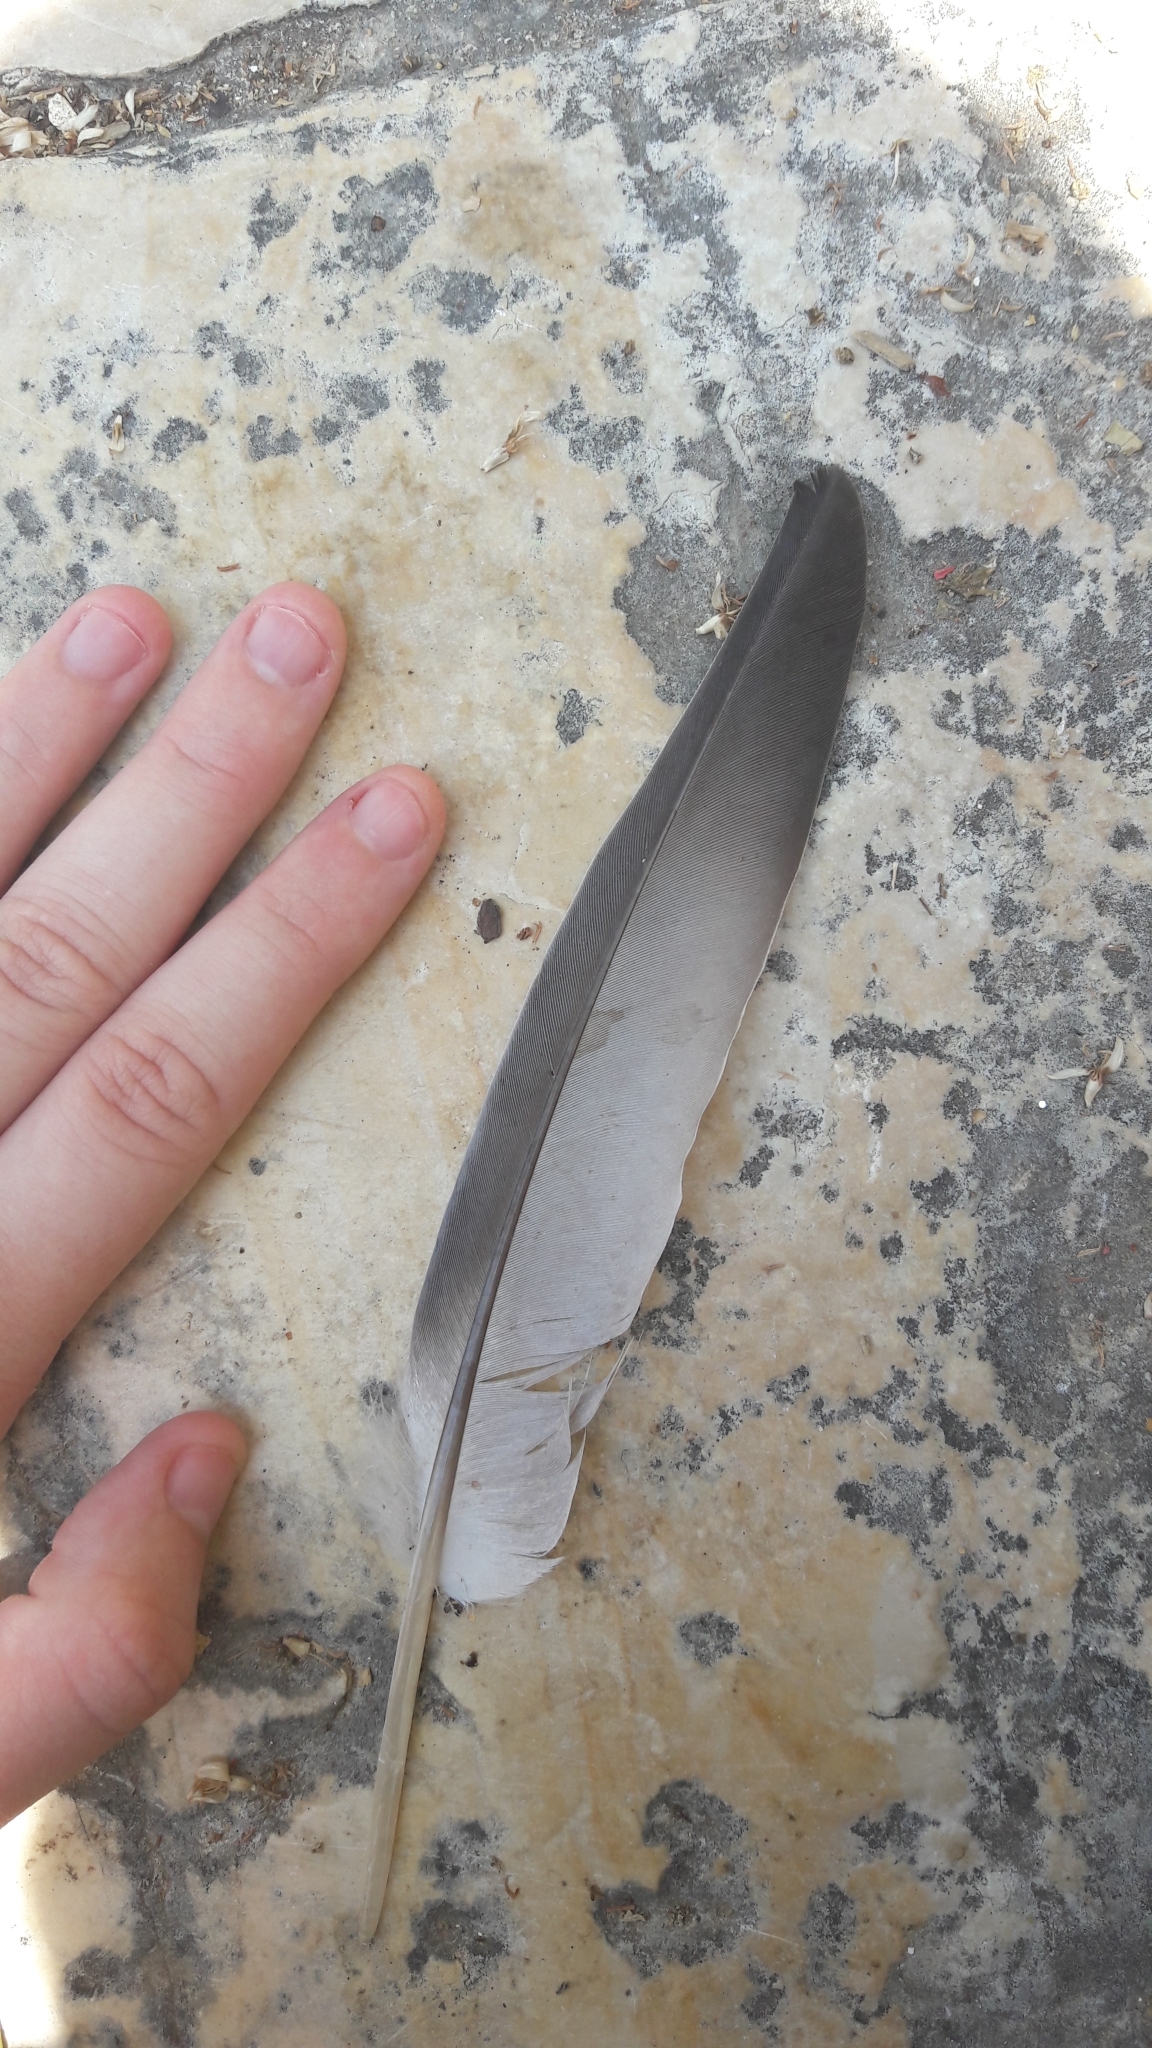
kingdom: Animalia
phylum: Chordata
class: Aves
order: Columbiformes
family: Columbidae
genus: Columba
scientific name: Columba livia
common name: Rock pigeon
